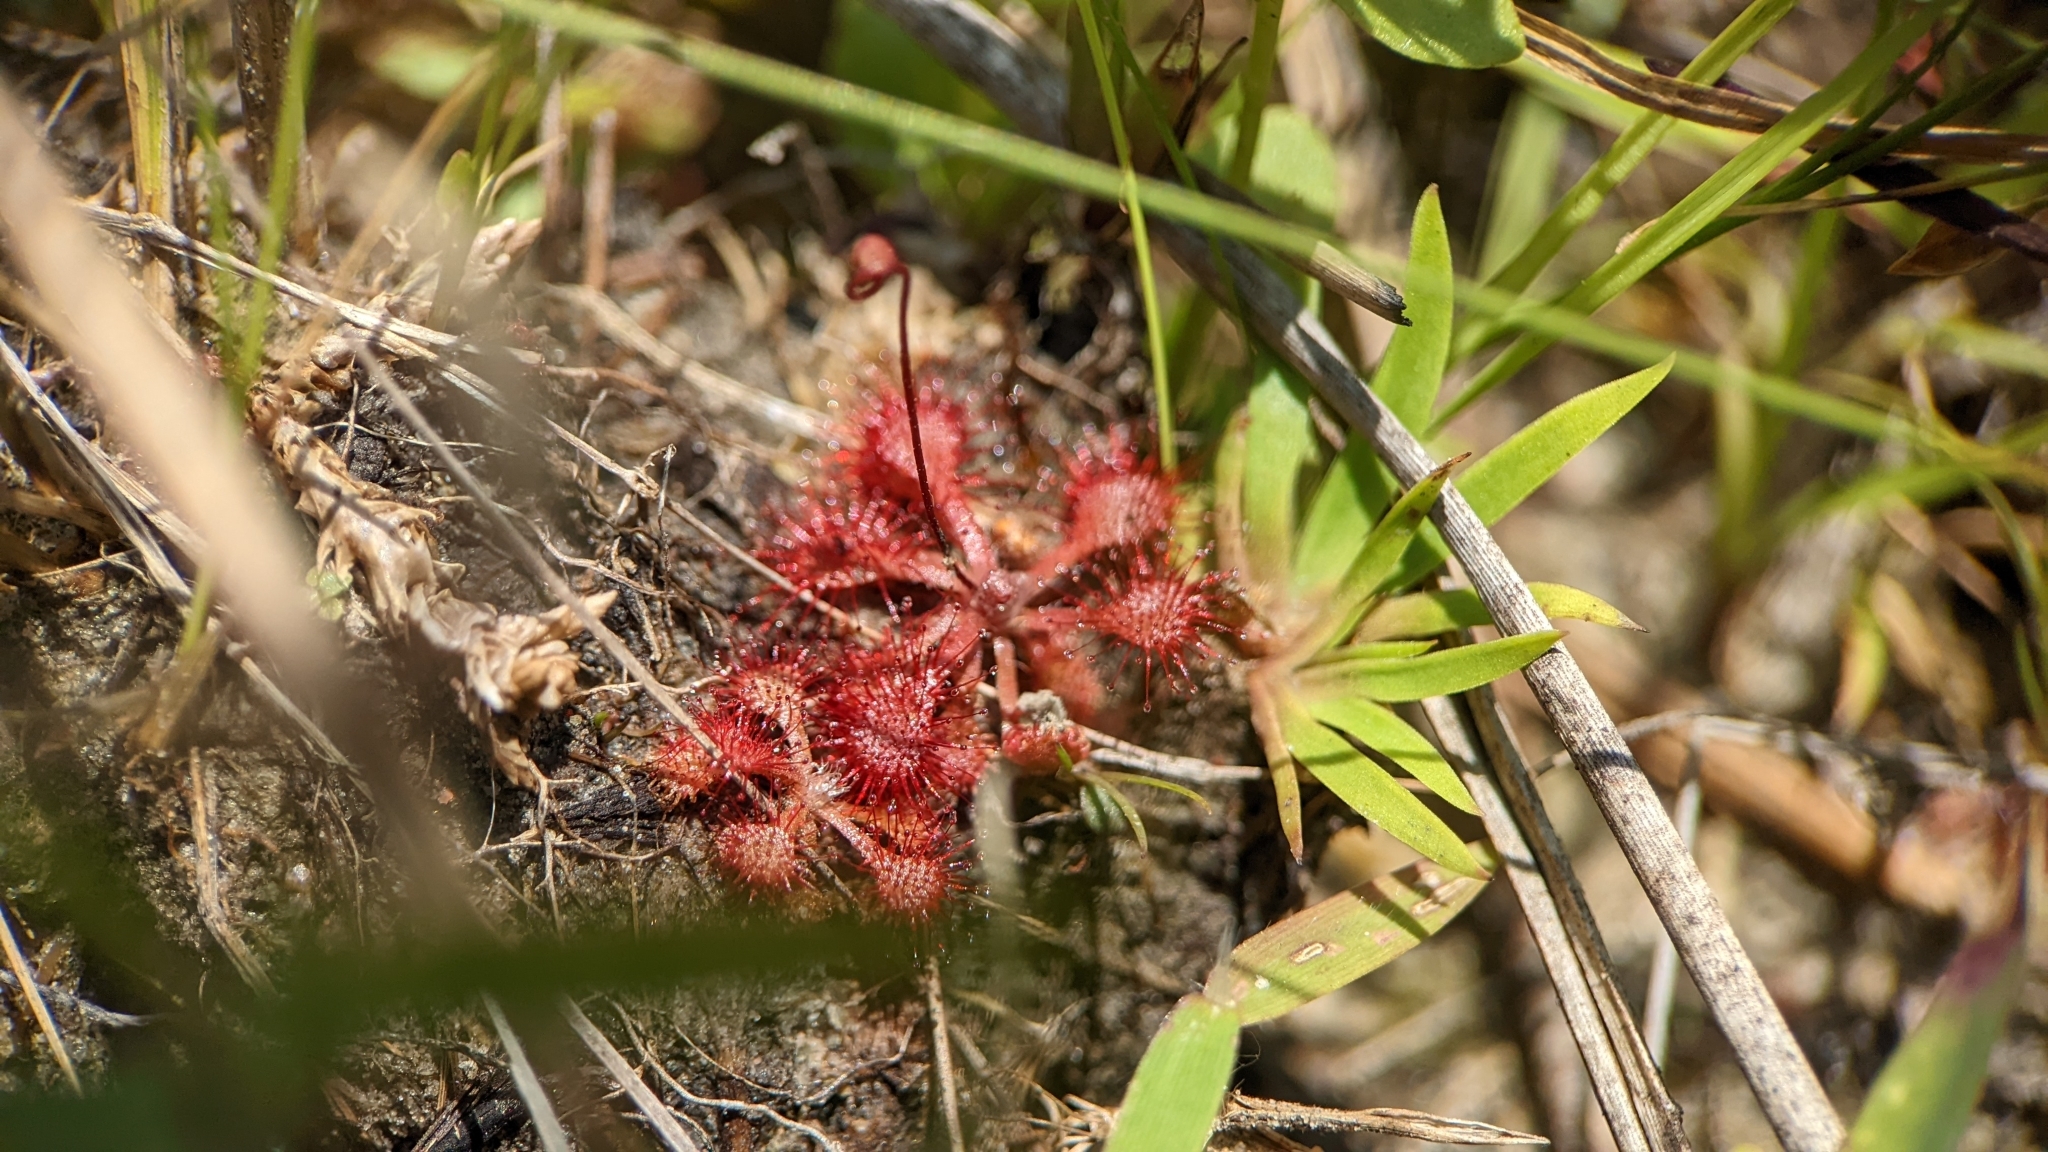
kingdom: Plantae
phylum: Tracheophyta
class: Magnoliopsida
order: Caryophyllales
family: Droseraceae
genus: Drosera
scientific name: Drosera capillaris
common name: Pink sundew
